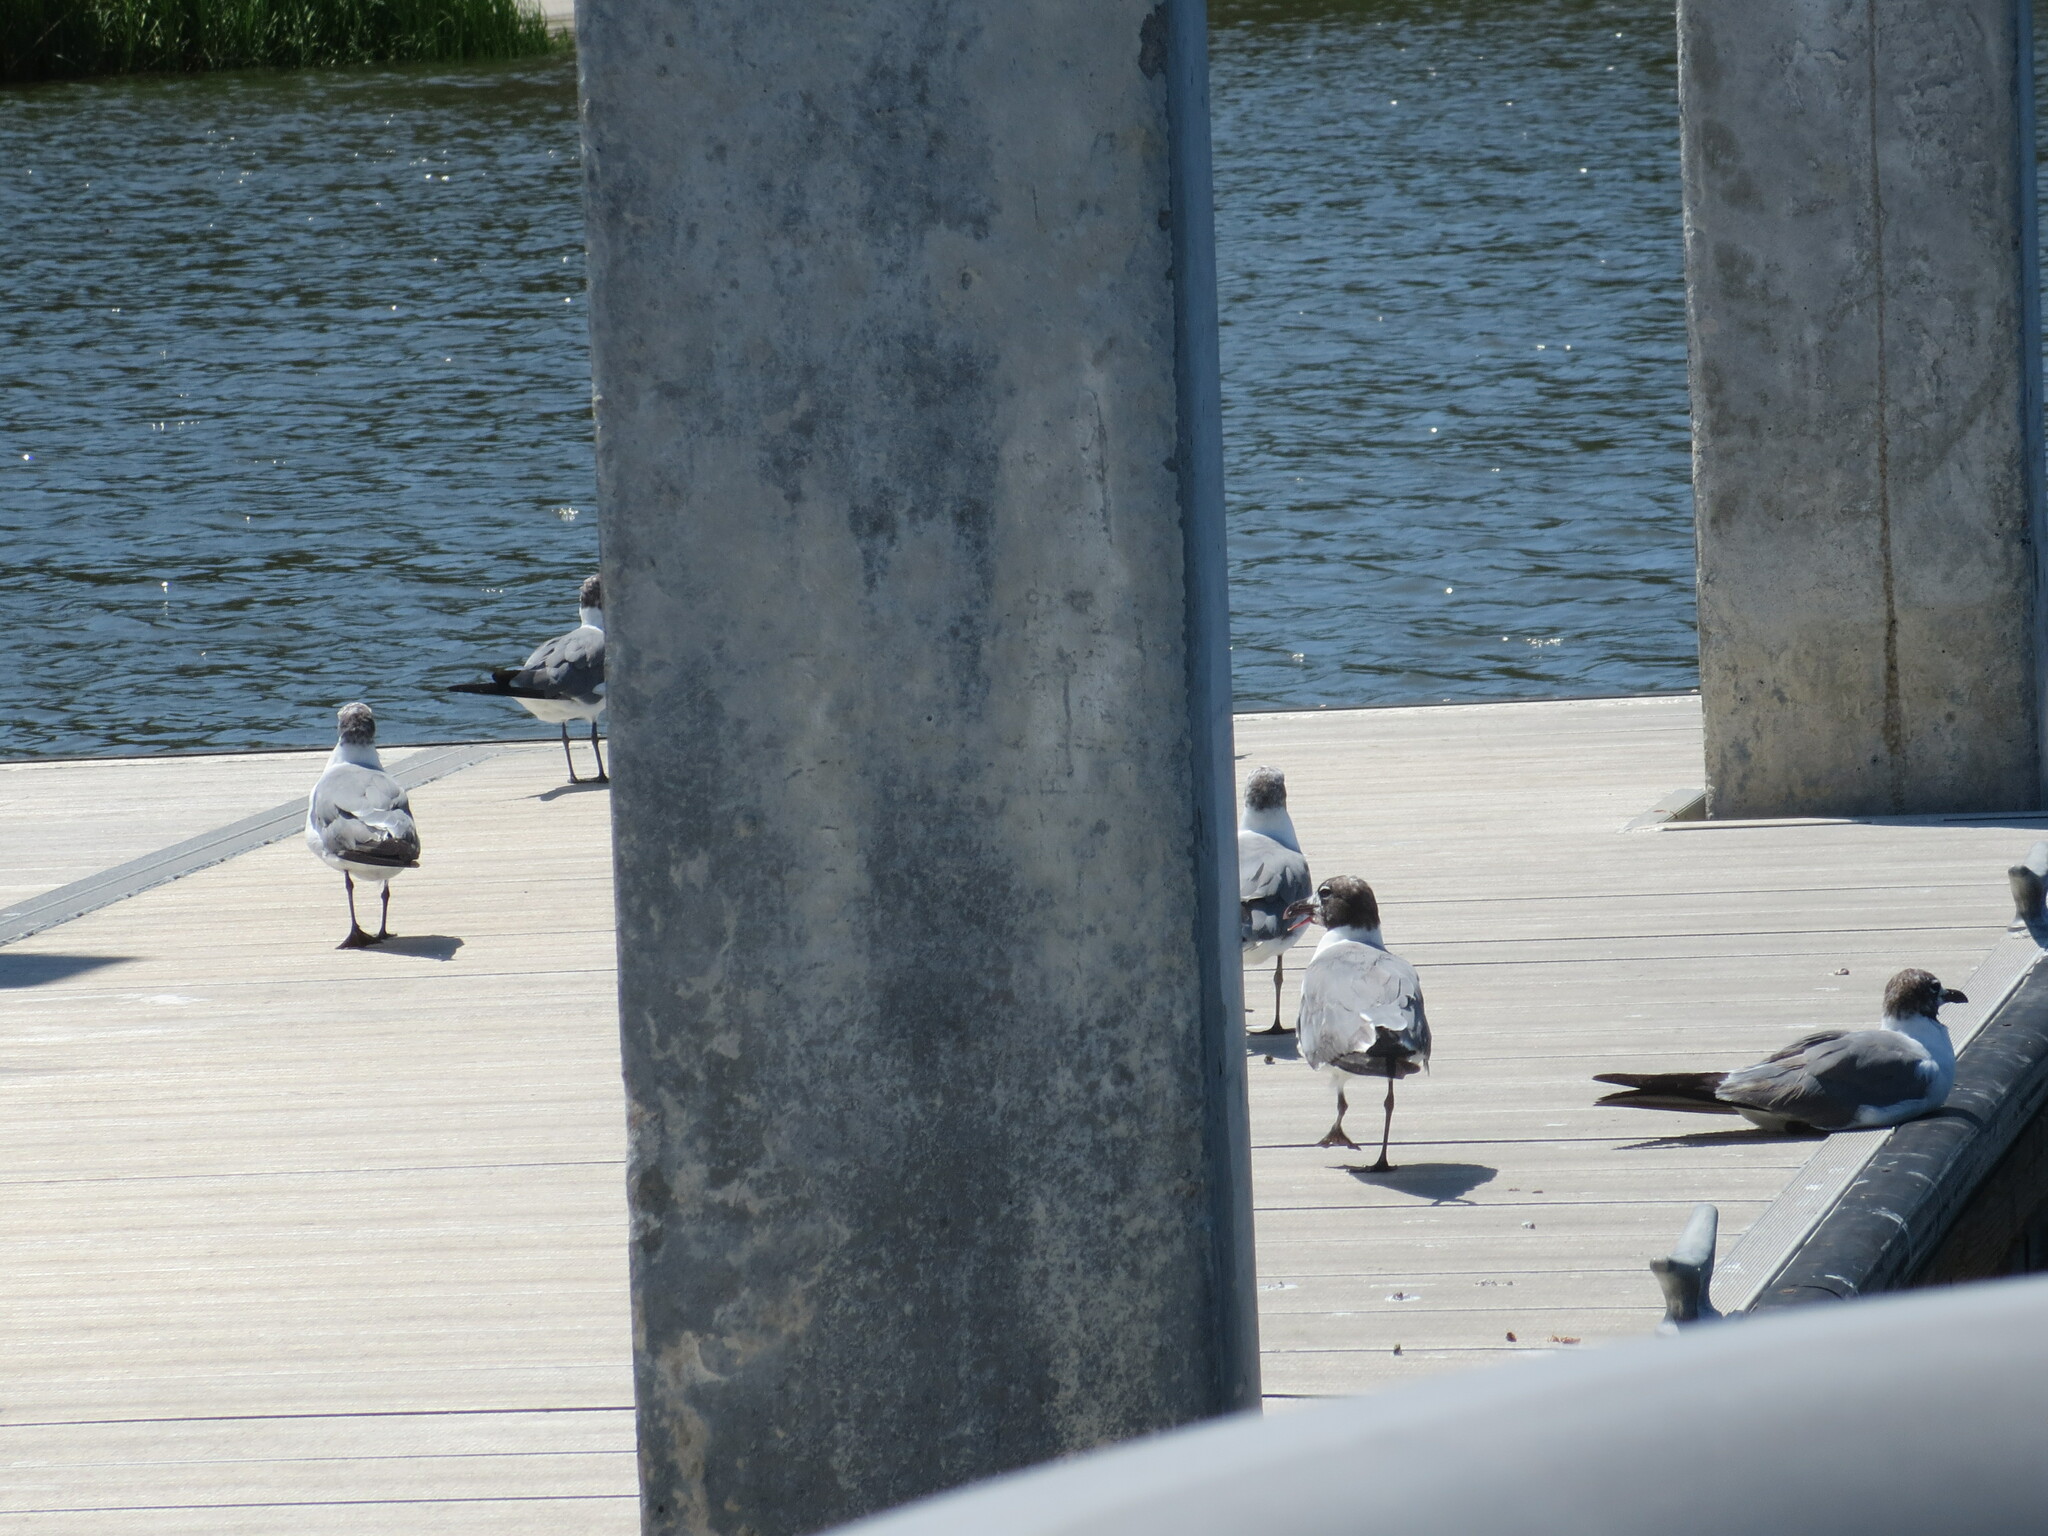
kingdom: Animalia
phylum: Chordata
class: Aves
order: Charadriiformes
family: Laridae
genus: Leucophaeus
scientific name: Leucophaeus atricilla
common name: Laughing gull
